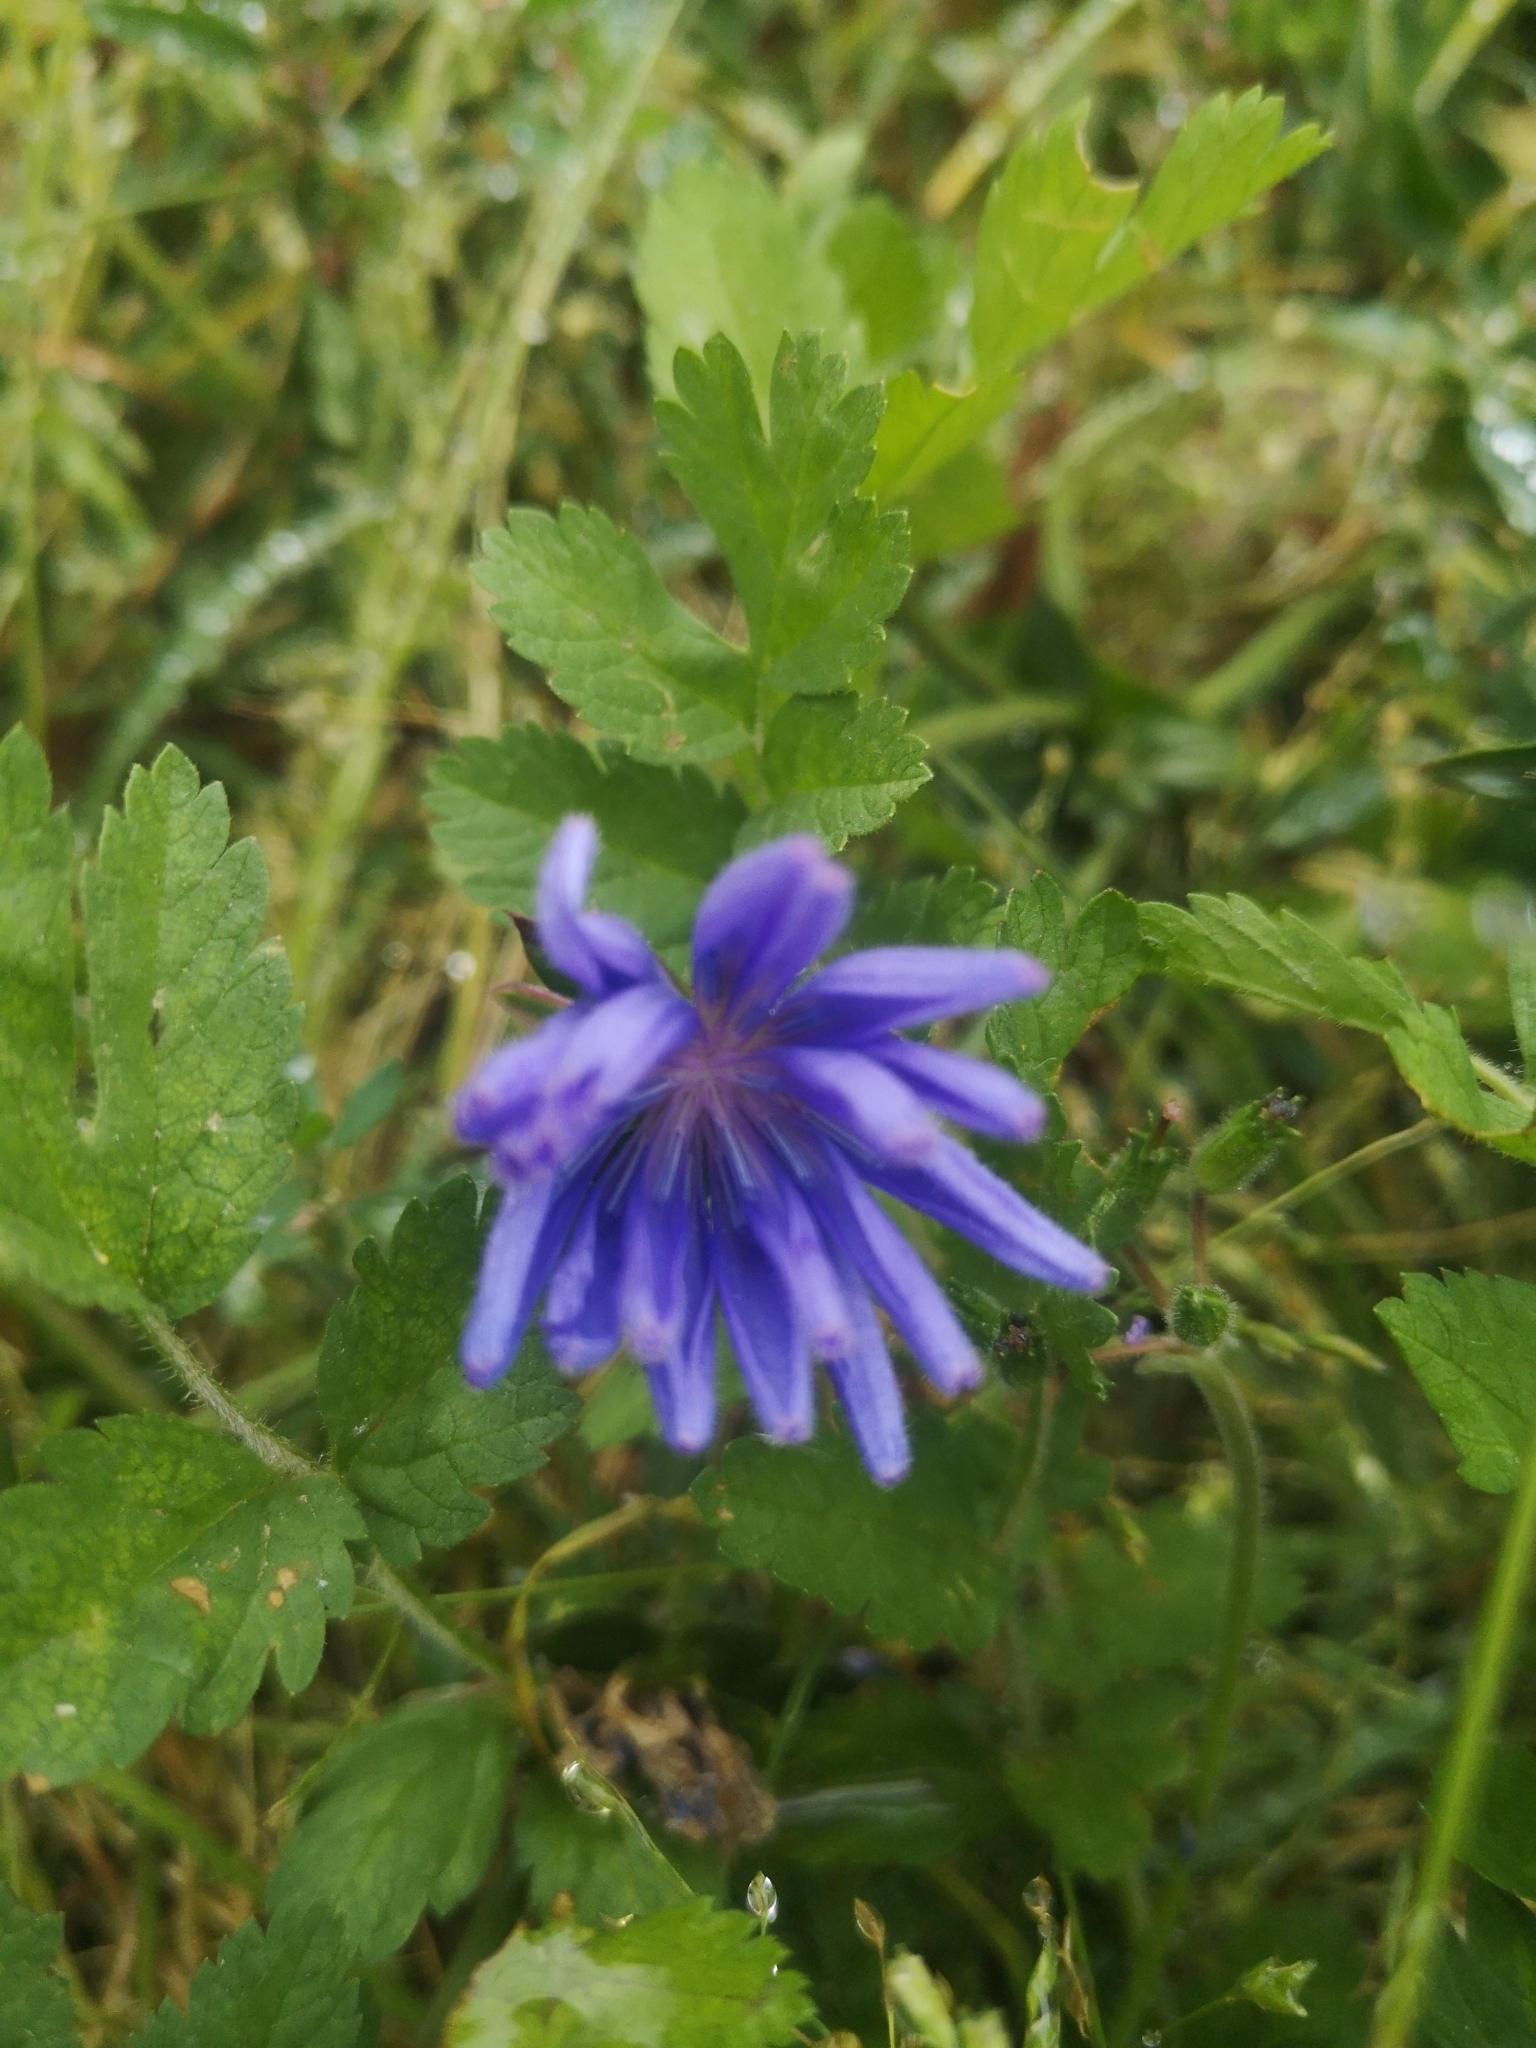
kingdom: Plantae
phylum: Tracheophyta
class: Magnoliopsida
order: Asterales
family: Asteraceae
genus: Cichorium
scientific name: Cichorium intybus
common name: Chicory
